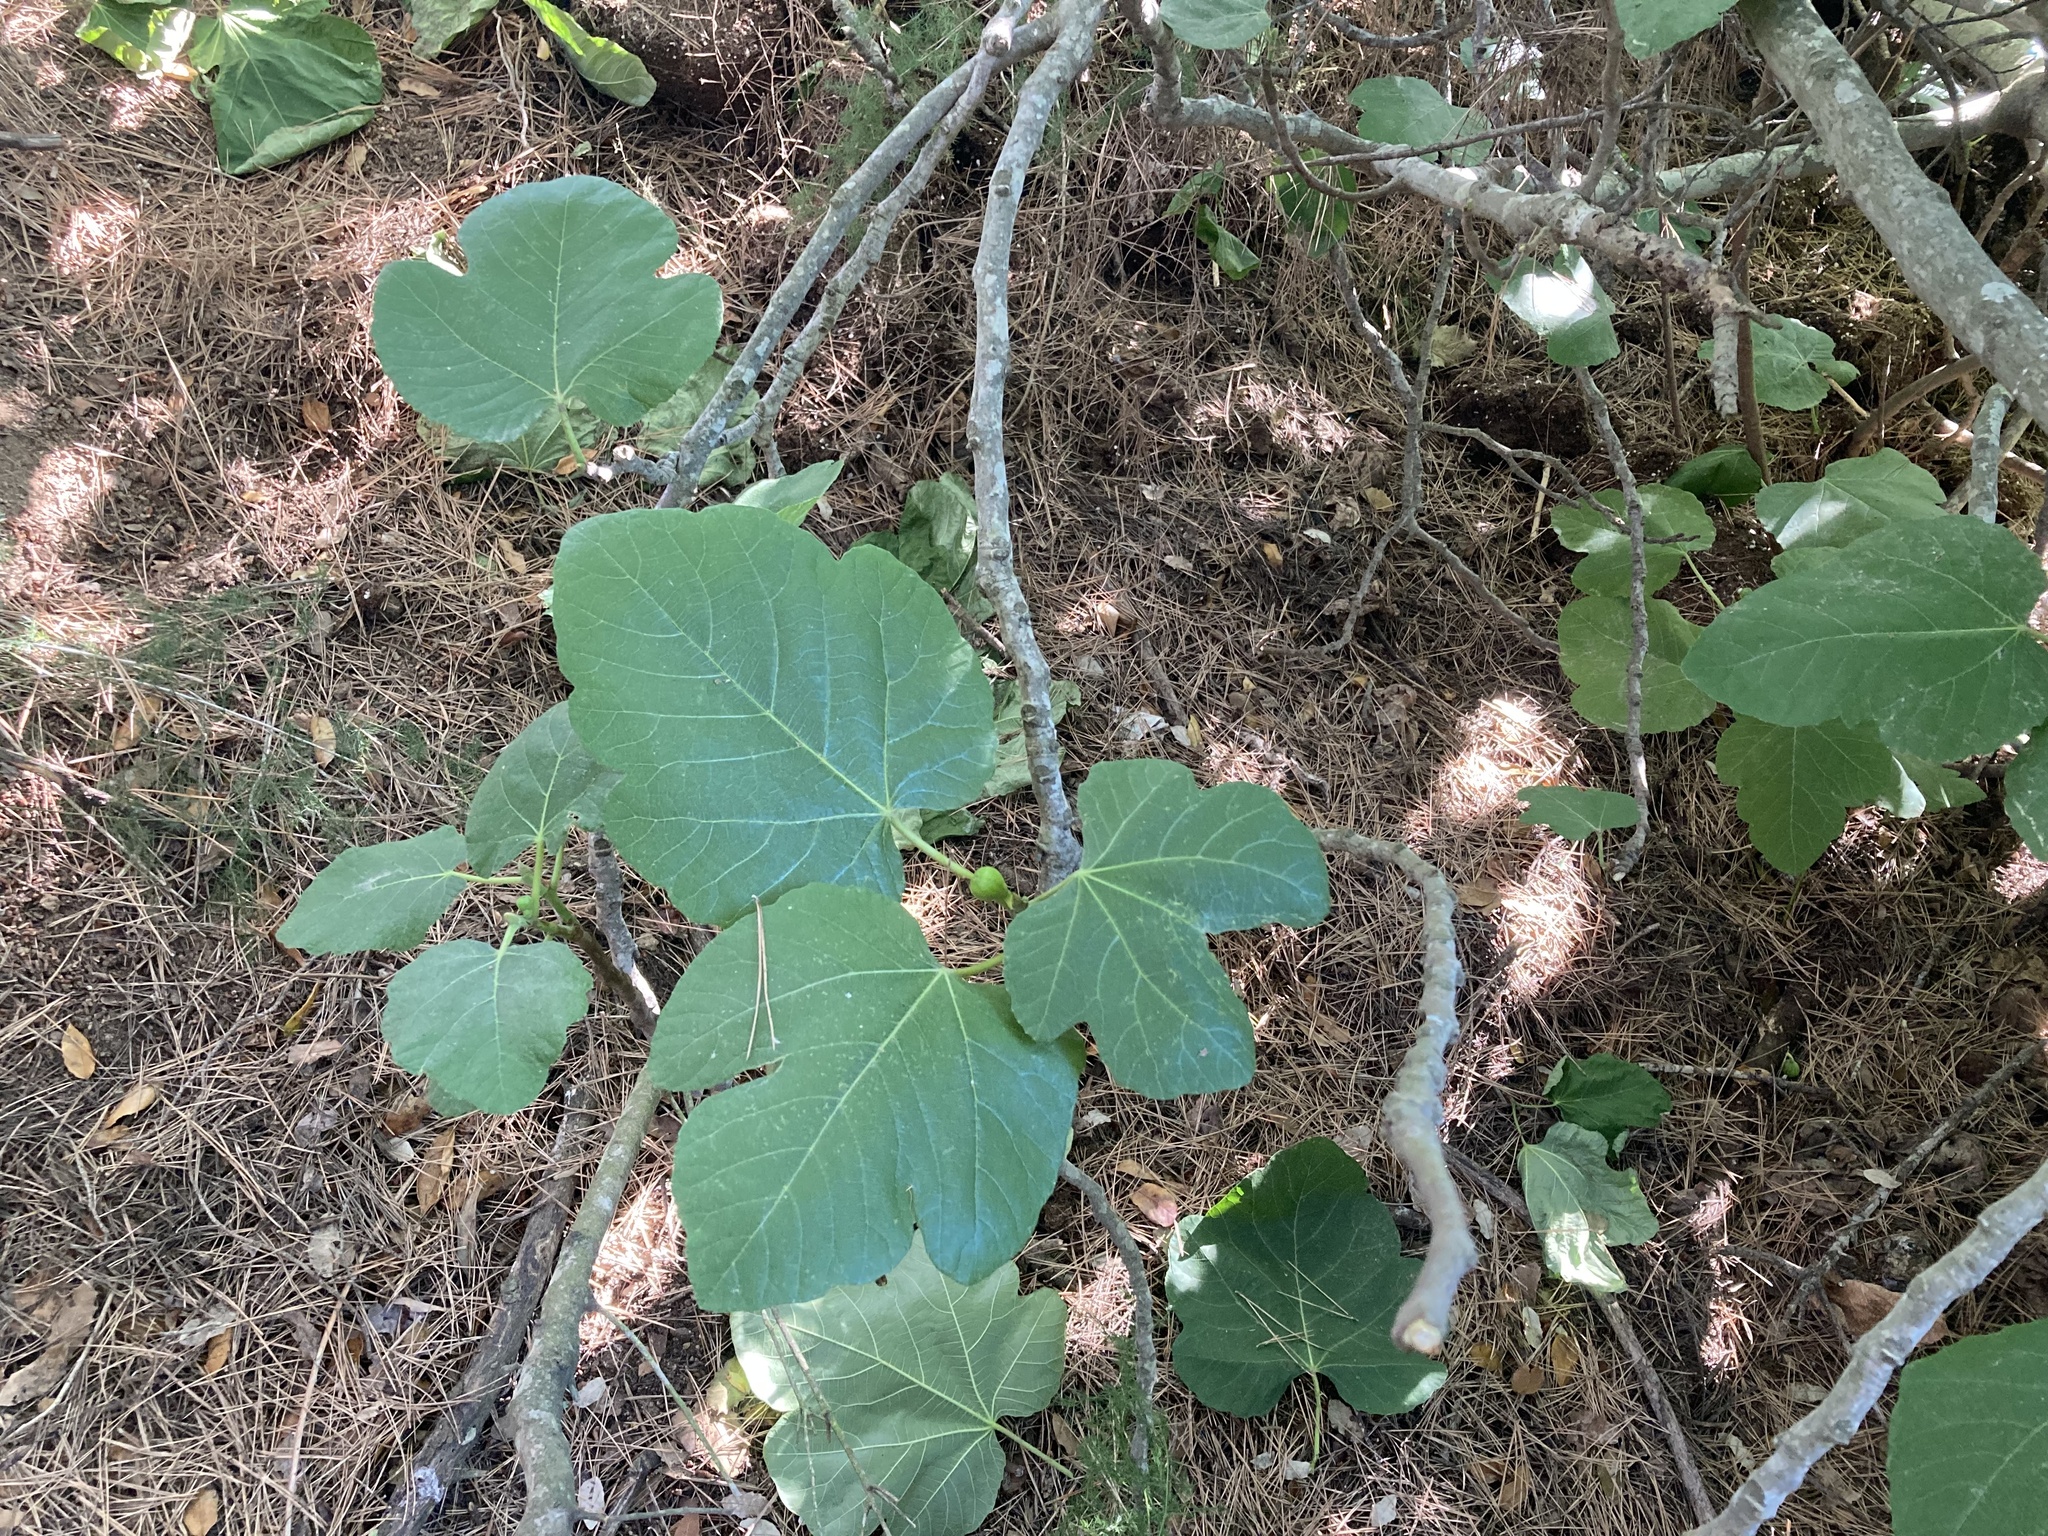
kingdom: Plantae
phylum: Tracheophyta
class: Magnoliopsida
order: Rosales
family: Moraceae
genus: Ficus
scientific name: Ficus carica
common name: Fig
